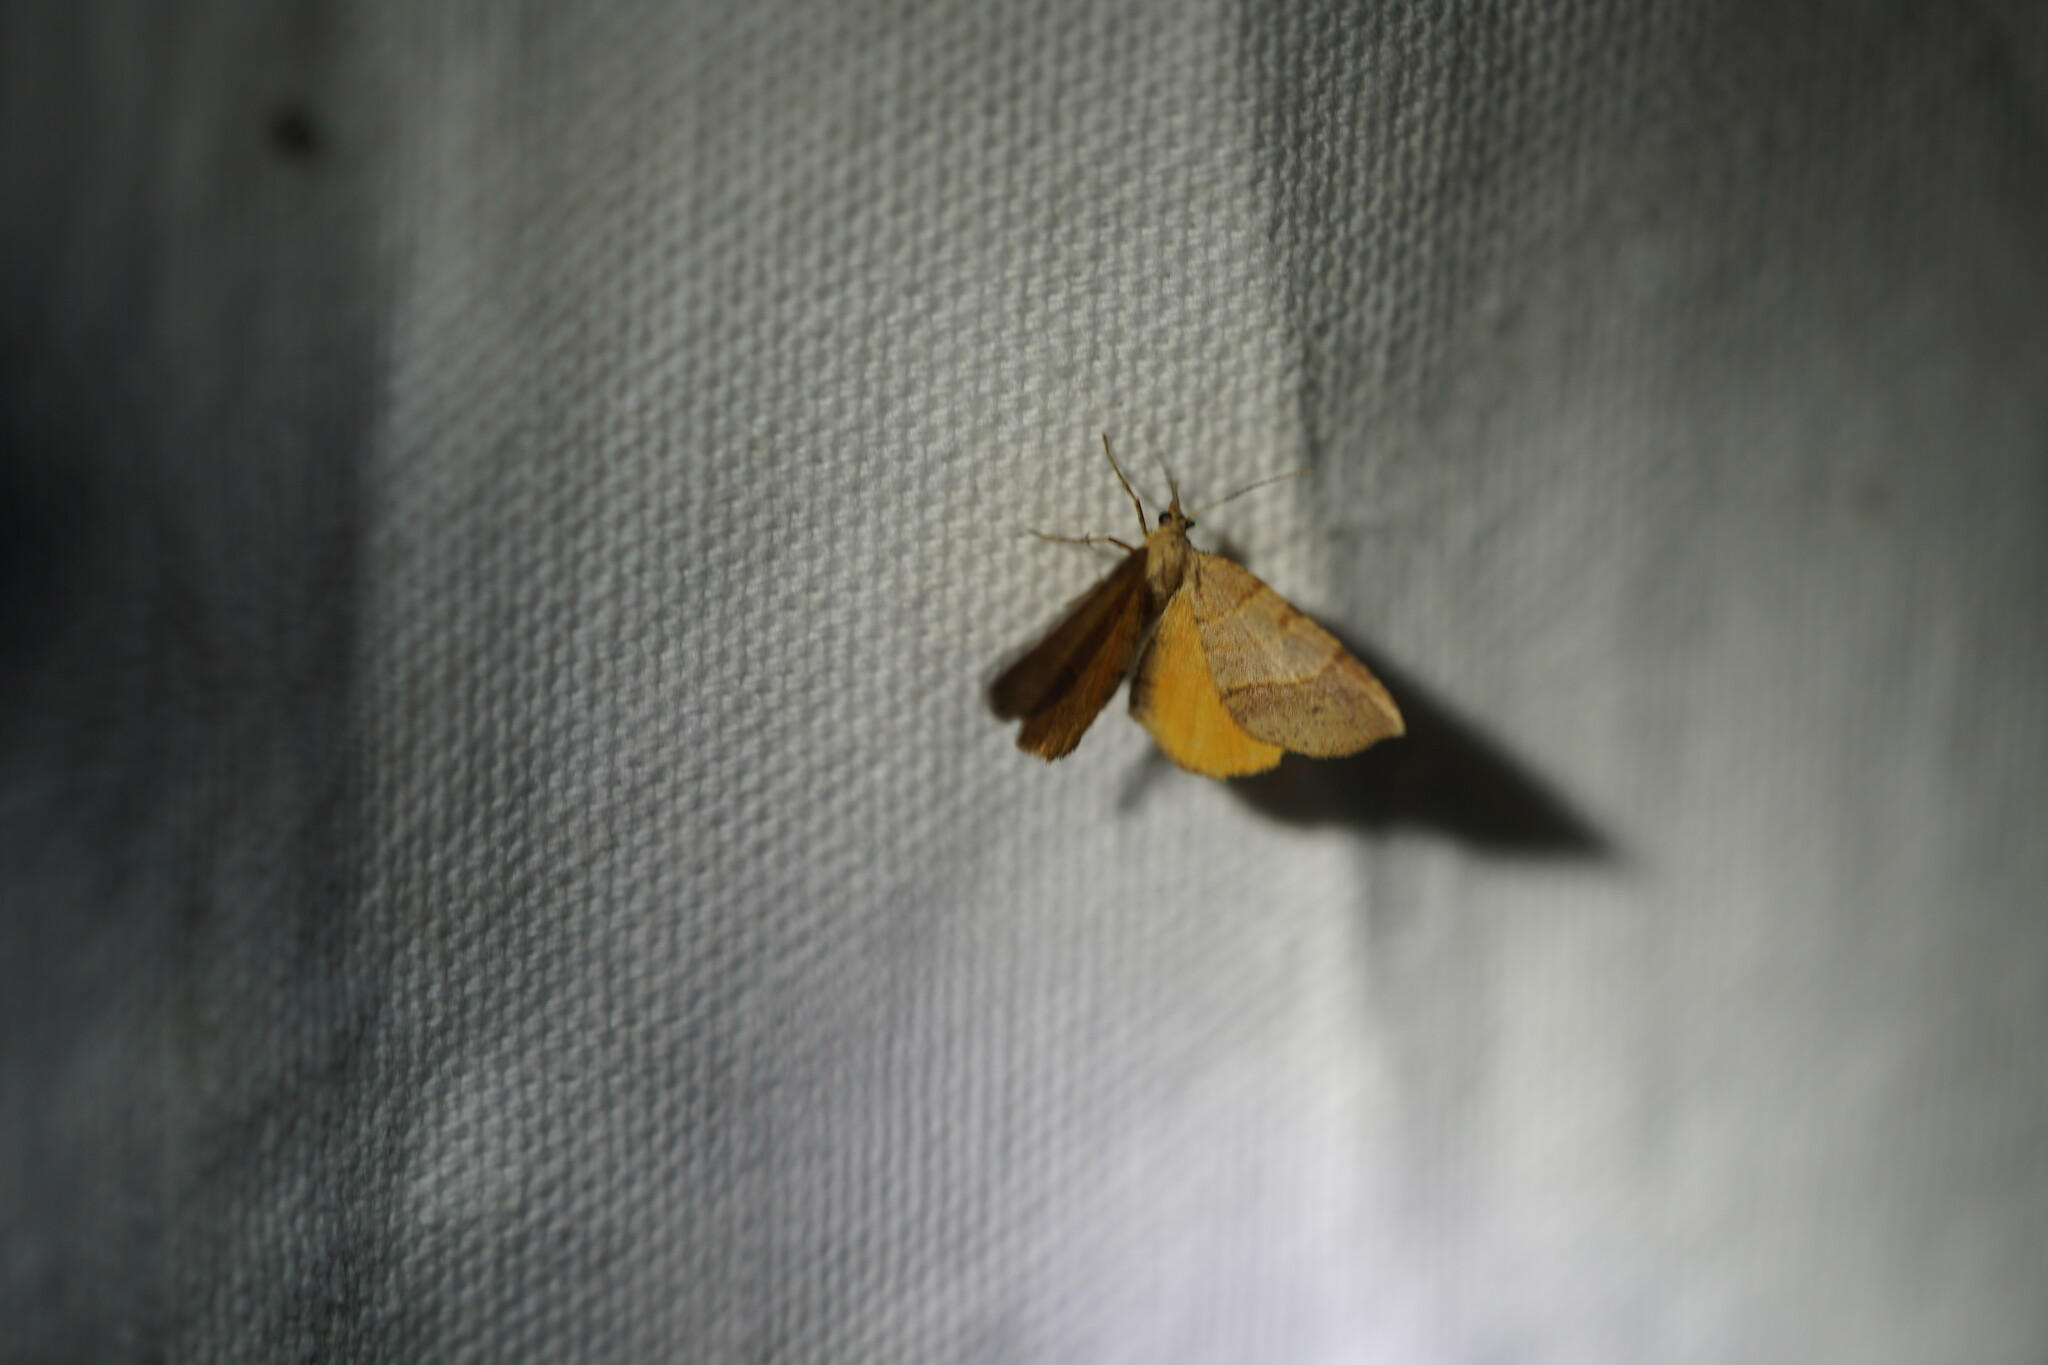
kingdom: Animalia
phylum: Arthropoda
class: Insecta
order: Lepidoptera
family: Geometridae
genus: Mellilla
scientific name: Mellilla xanthometata
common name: Orange wing moth
